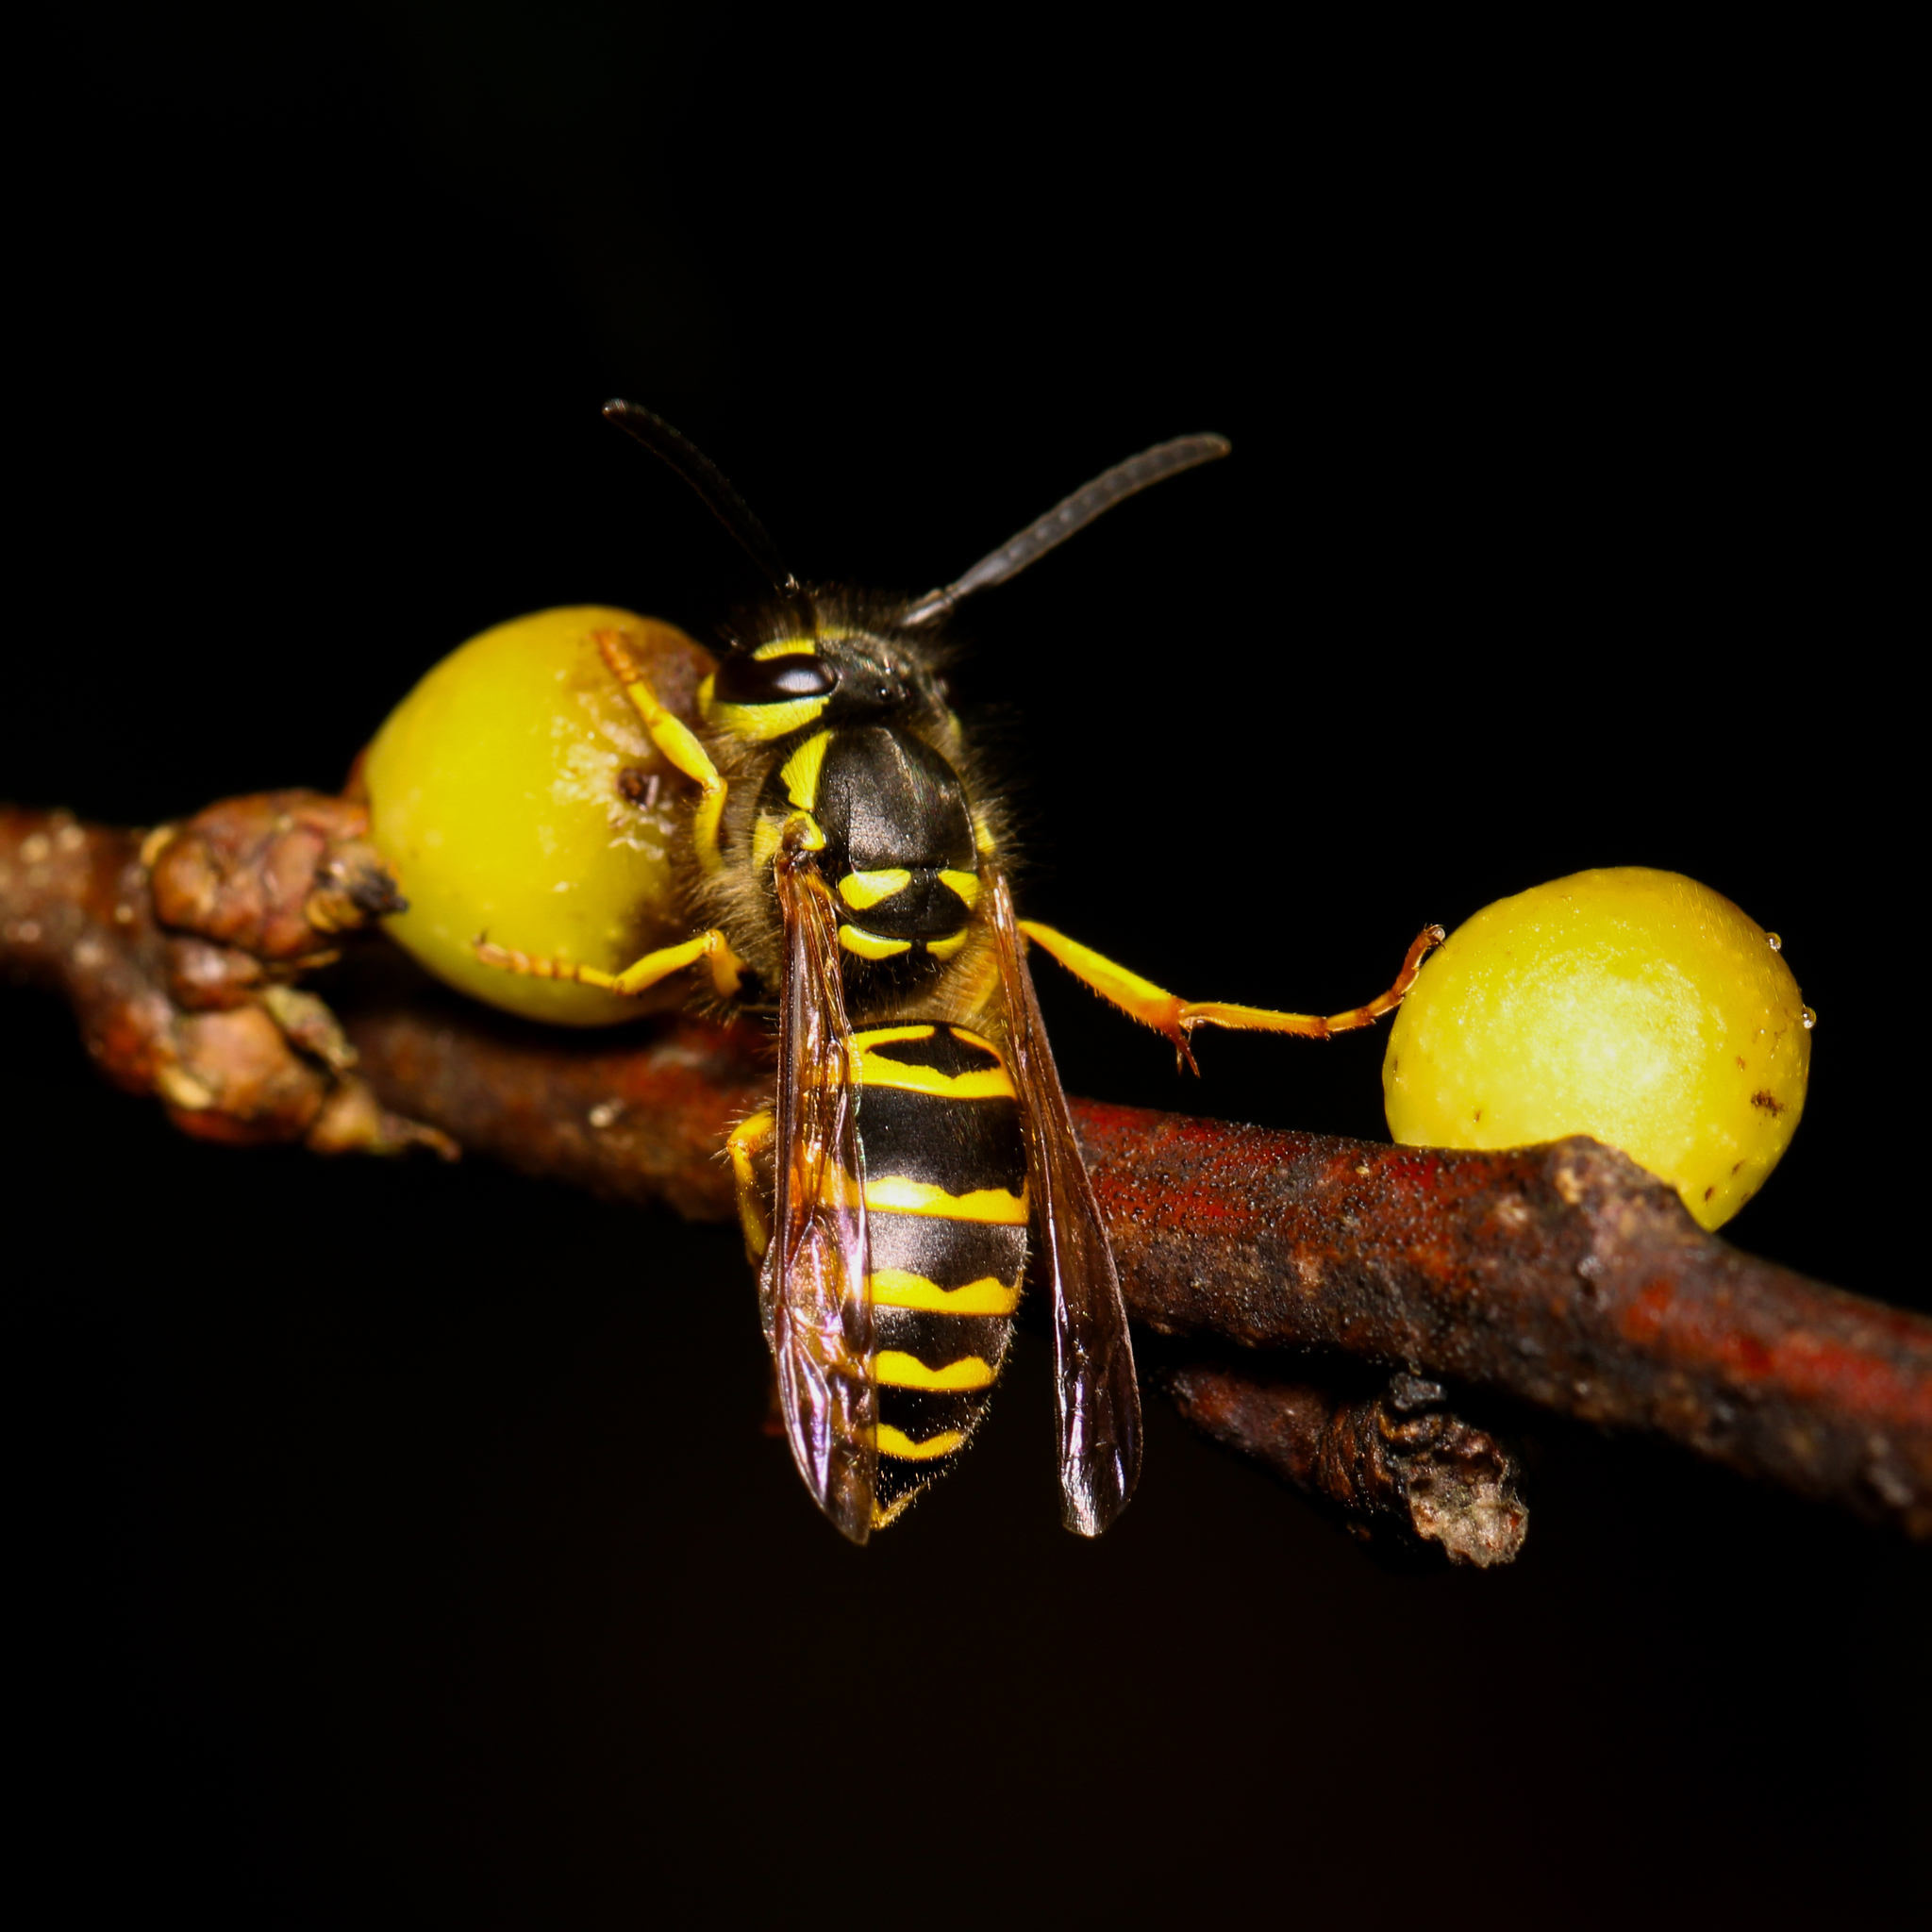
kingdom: Animalia
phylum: Arthropoda
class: Insecta
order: Hymenoptera
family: Vespidae
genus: Vespula
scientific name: Vespula maculifrons
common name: Eastern yellowjacket
